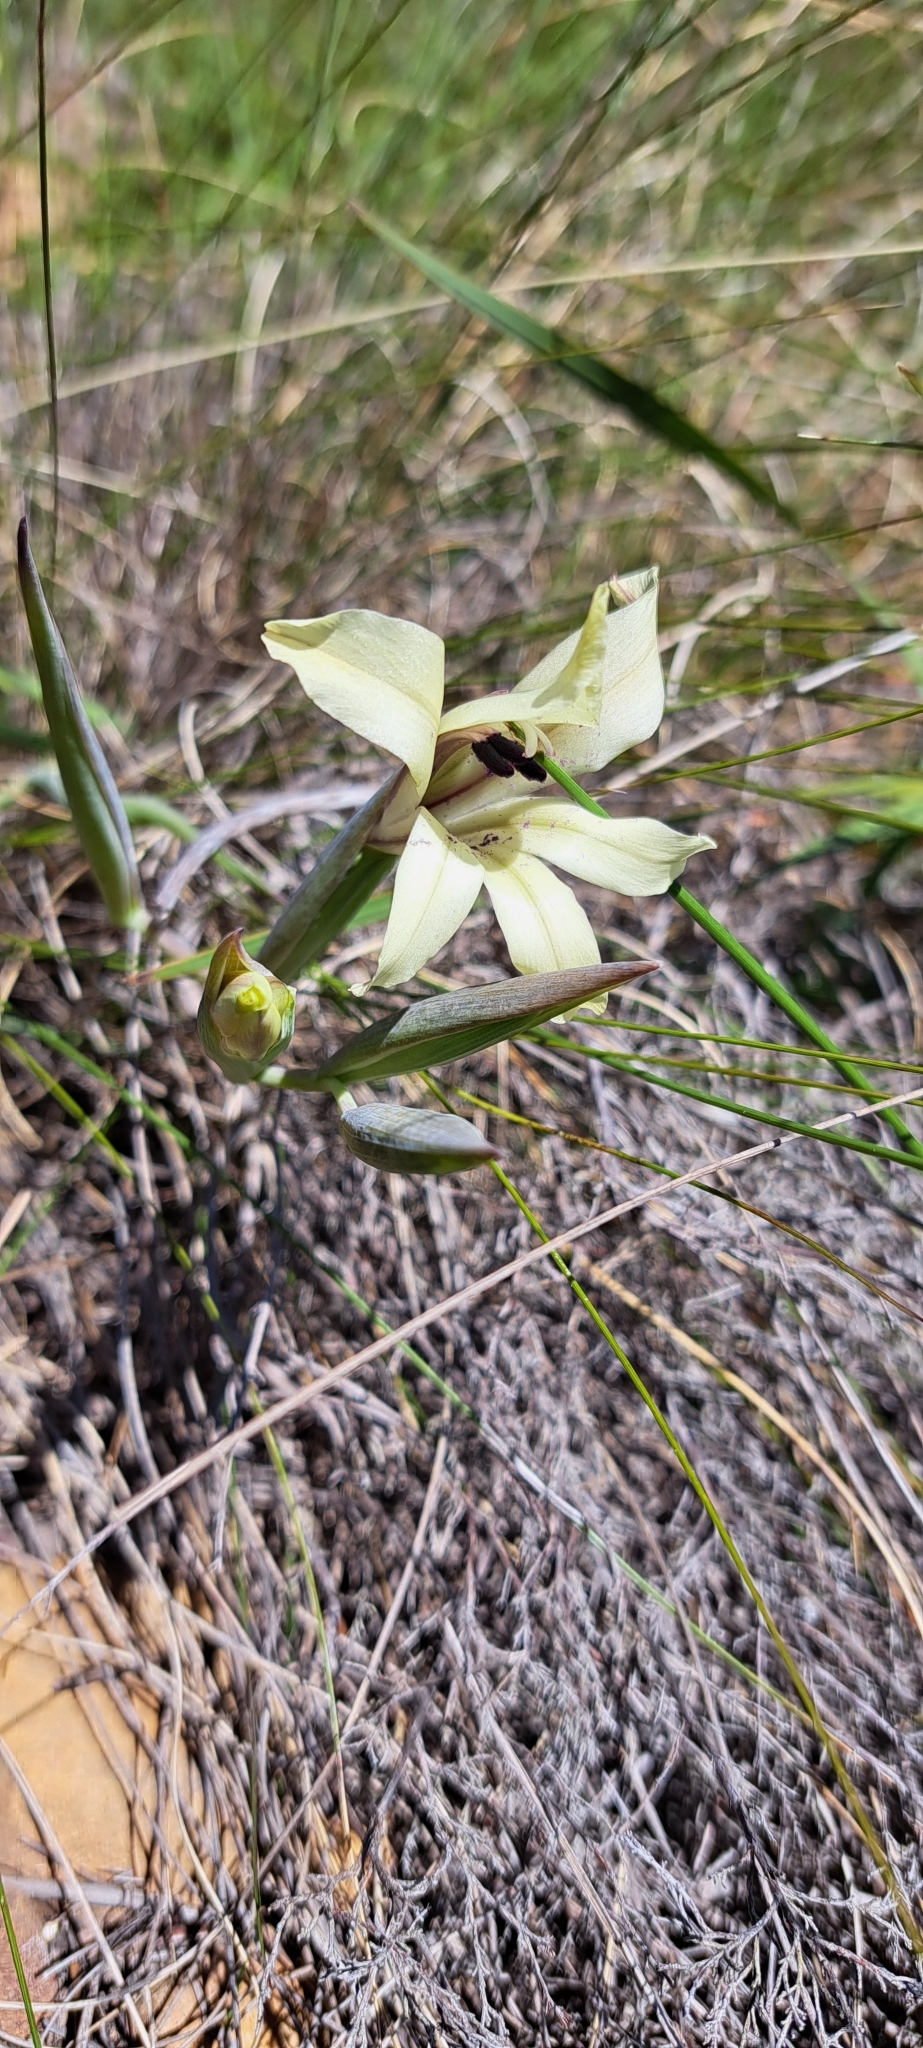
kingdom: Plantae
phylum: Tracheophyta
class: Liliopsida
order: Asparagales
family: Iridaceae
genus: Gladiolus
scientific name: Gladiolus floribundus
